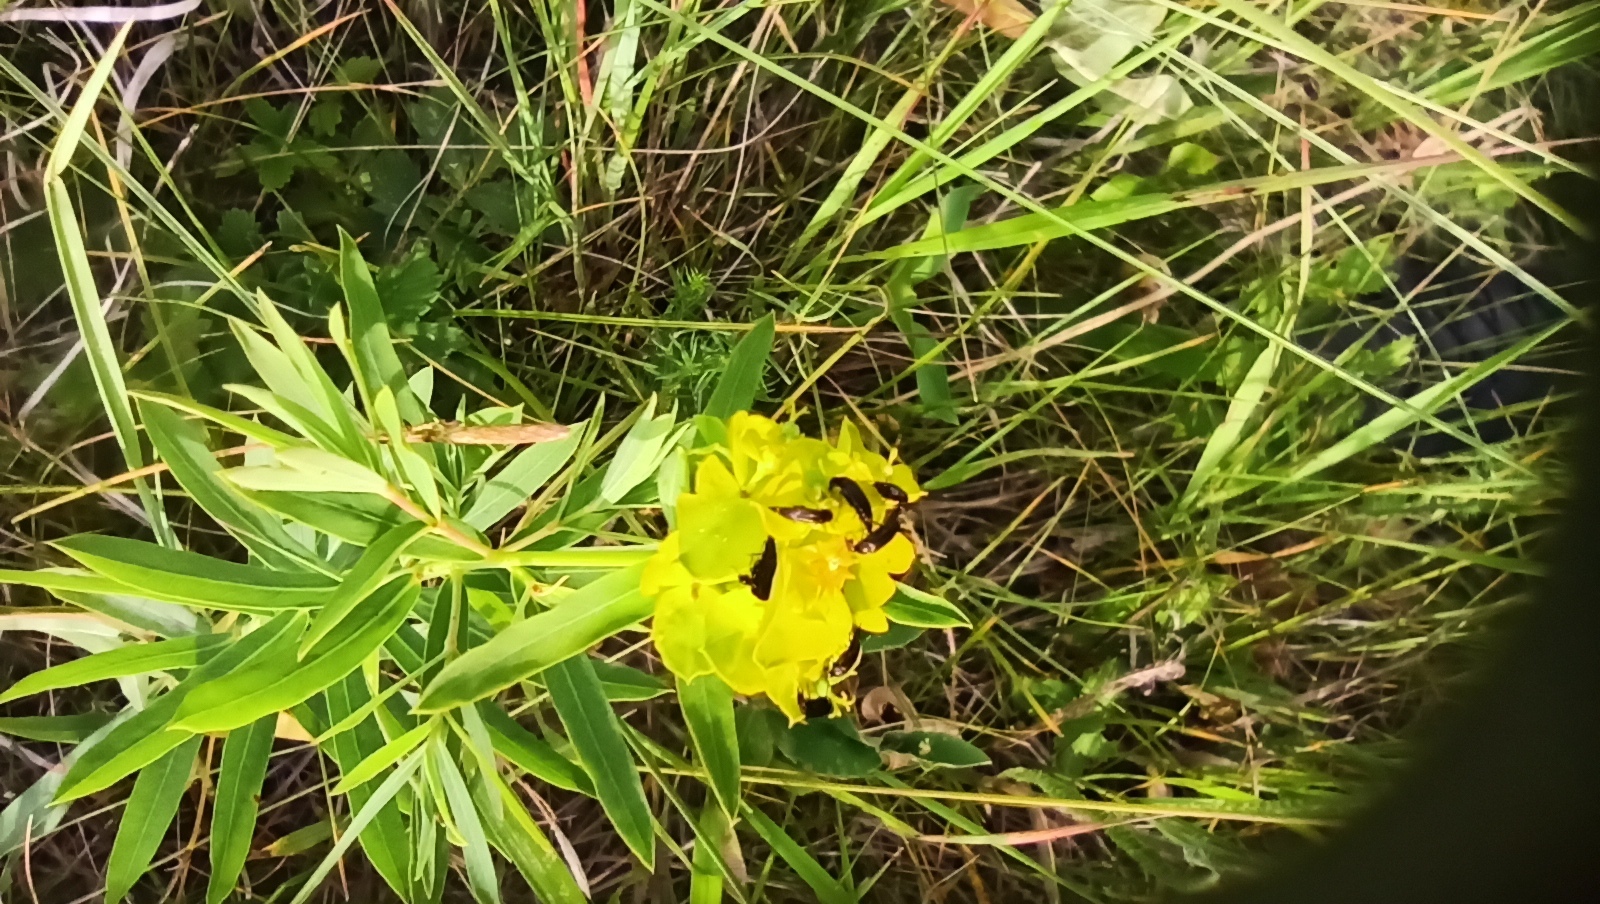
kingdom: Plantae
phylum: Tracheophyta
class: Magnoliopsida
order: Malpighiales
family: Euphorbiaceae
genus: Euphorbia
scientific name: Euphorbia virgata
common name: Leafy spurge
